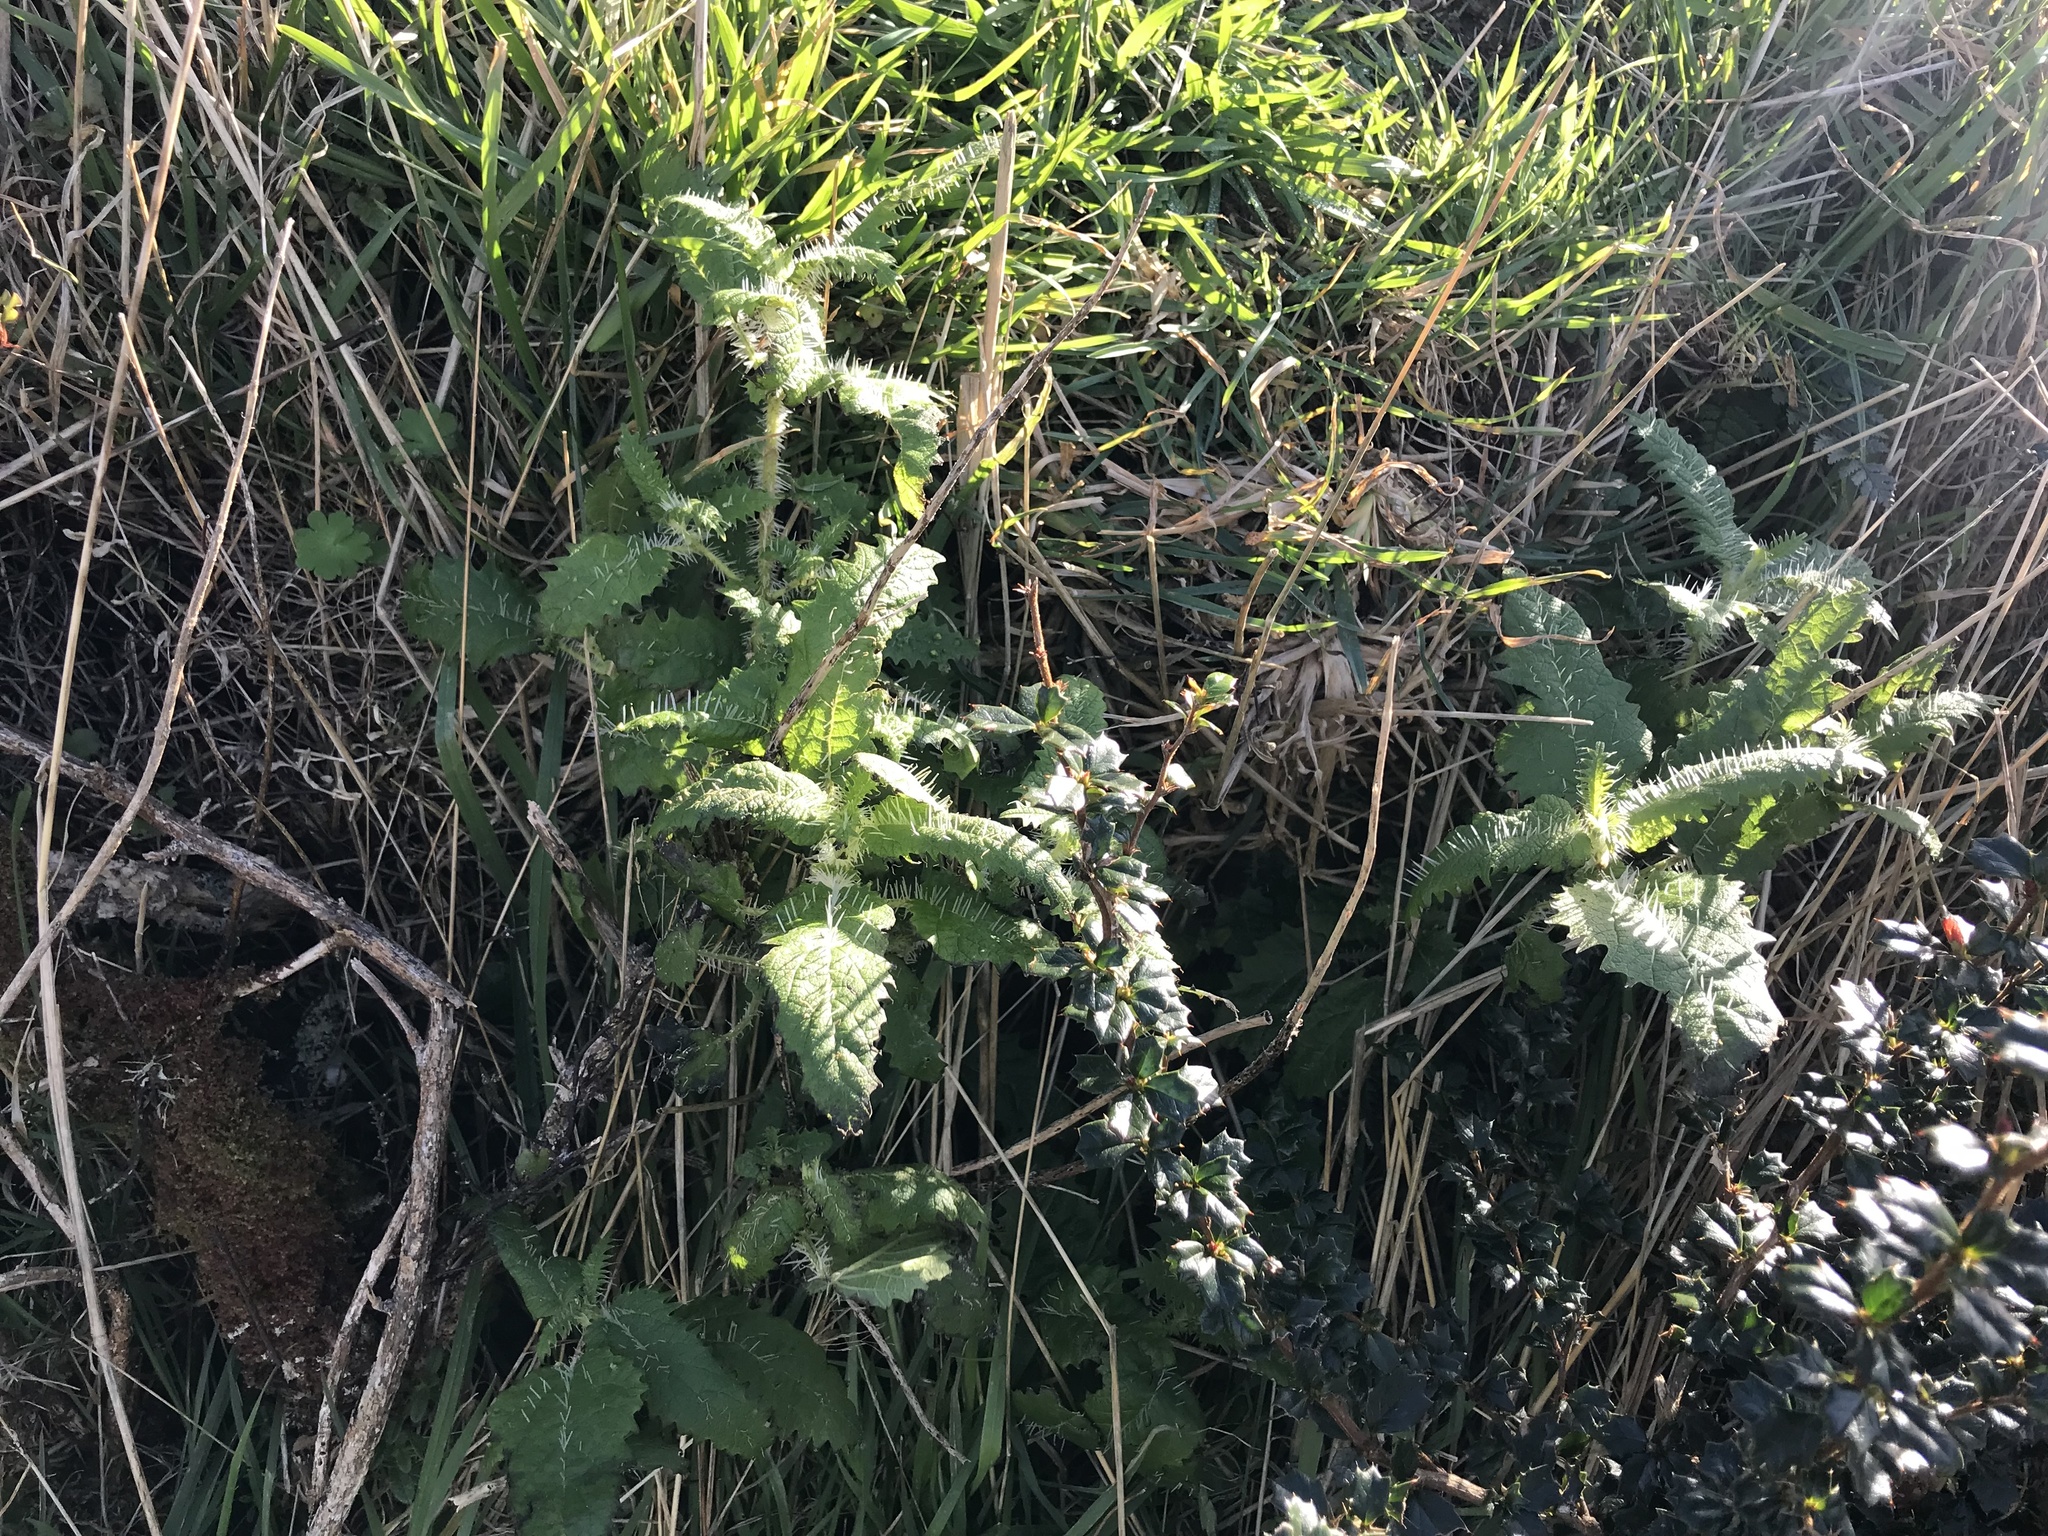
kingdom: Plantae
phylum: Tracheophyta
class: Magnoliopsida
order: Rosales
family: Urticaceae
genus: Urtica
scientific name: Urtica ferox
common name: Tree nettle
